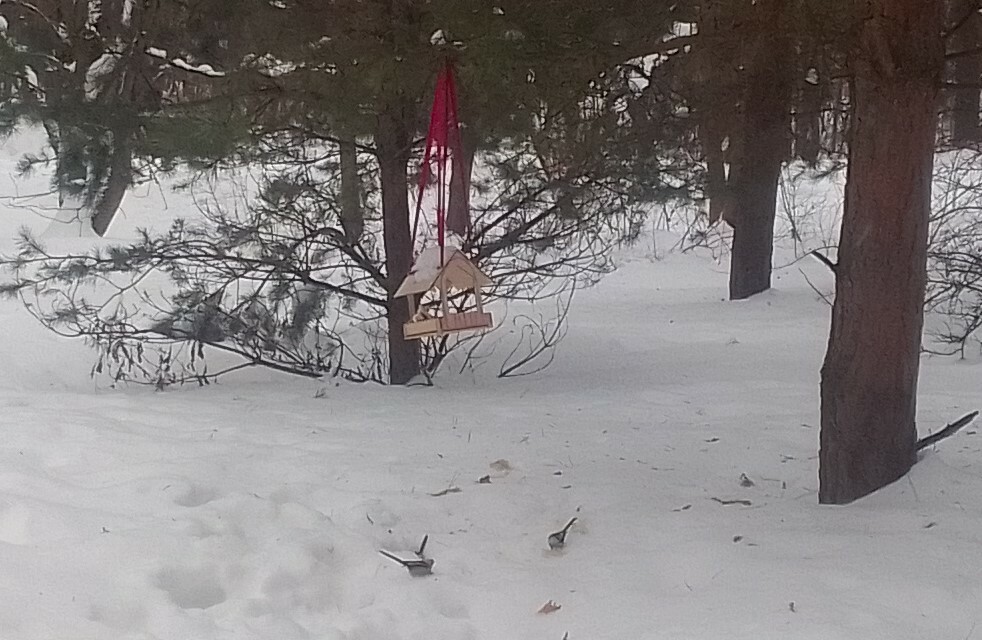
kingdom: Animalia
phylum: Chordata
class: Aves
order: Passeriformes
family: Aegithalidae
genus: Aegithalos
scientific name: Aegithalos caudatus
